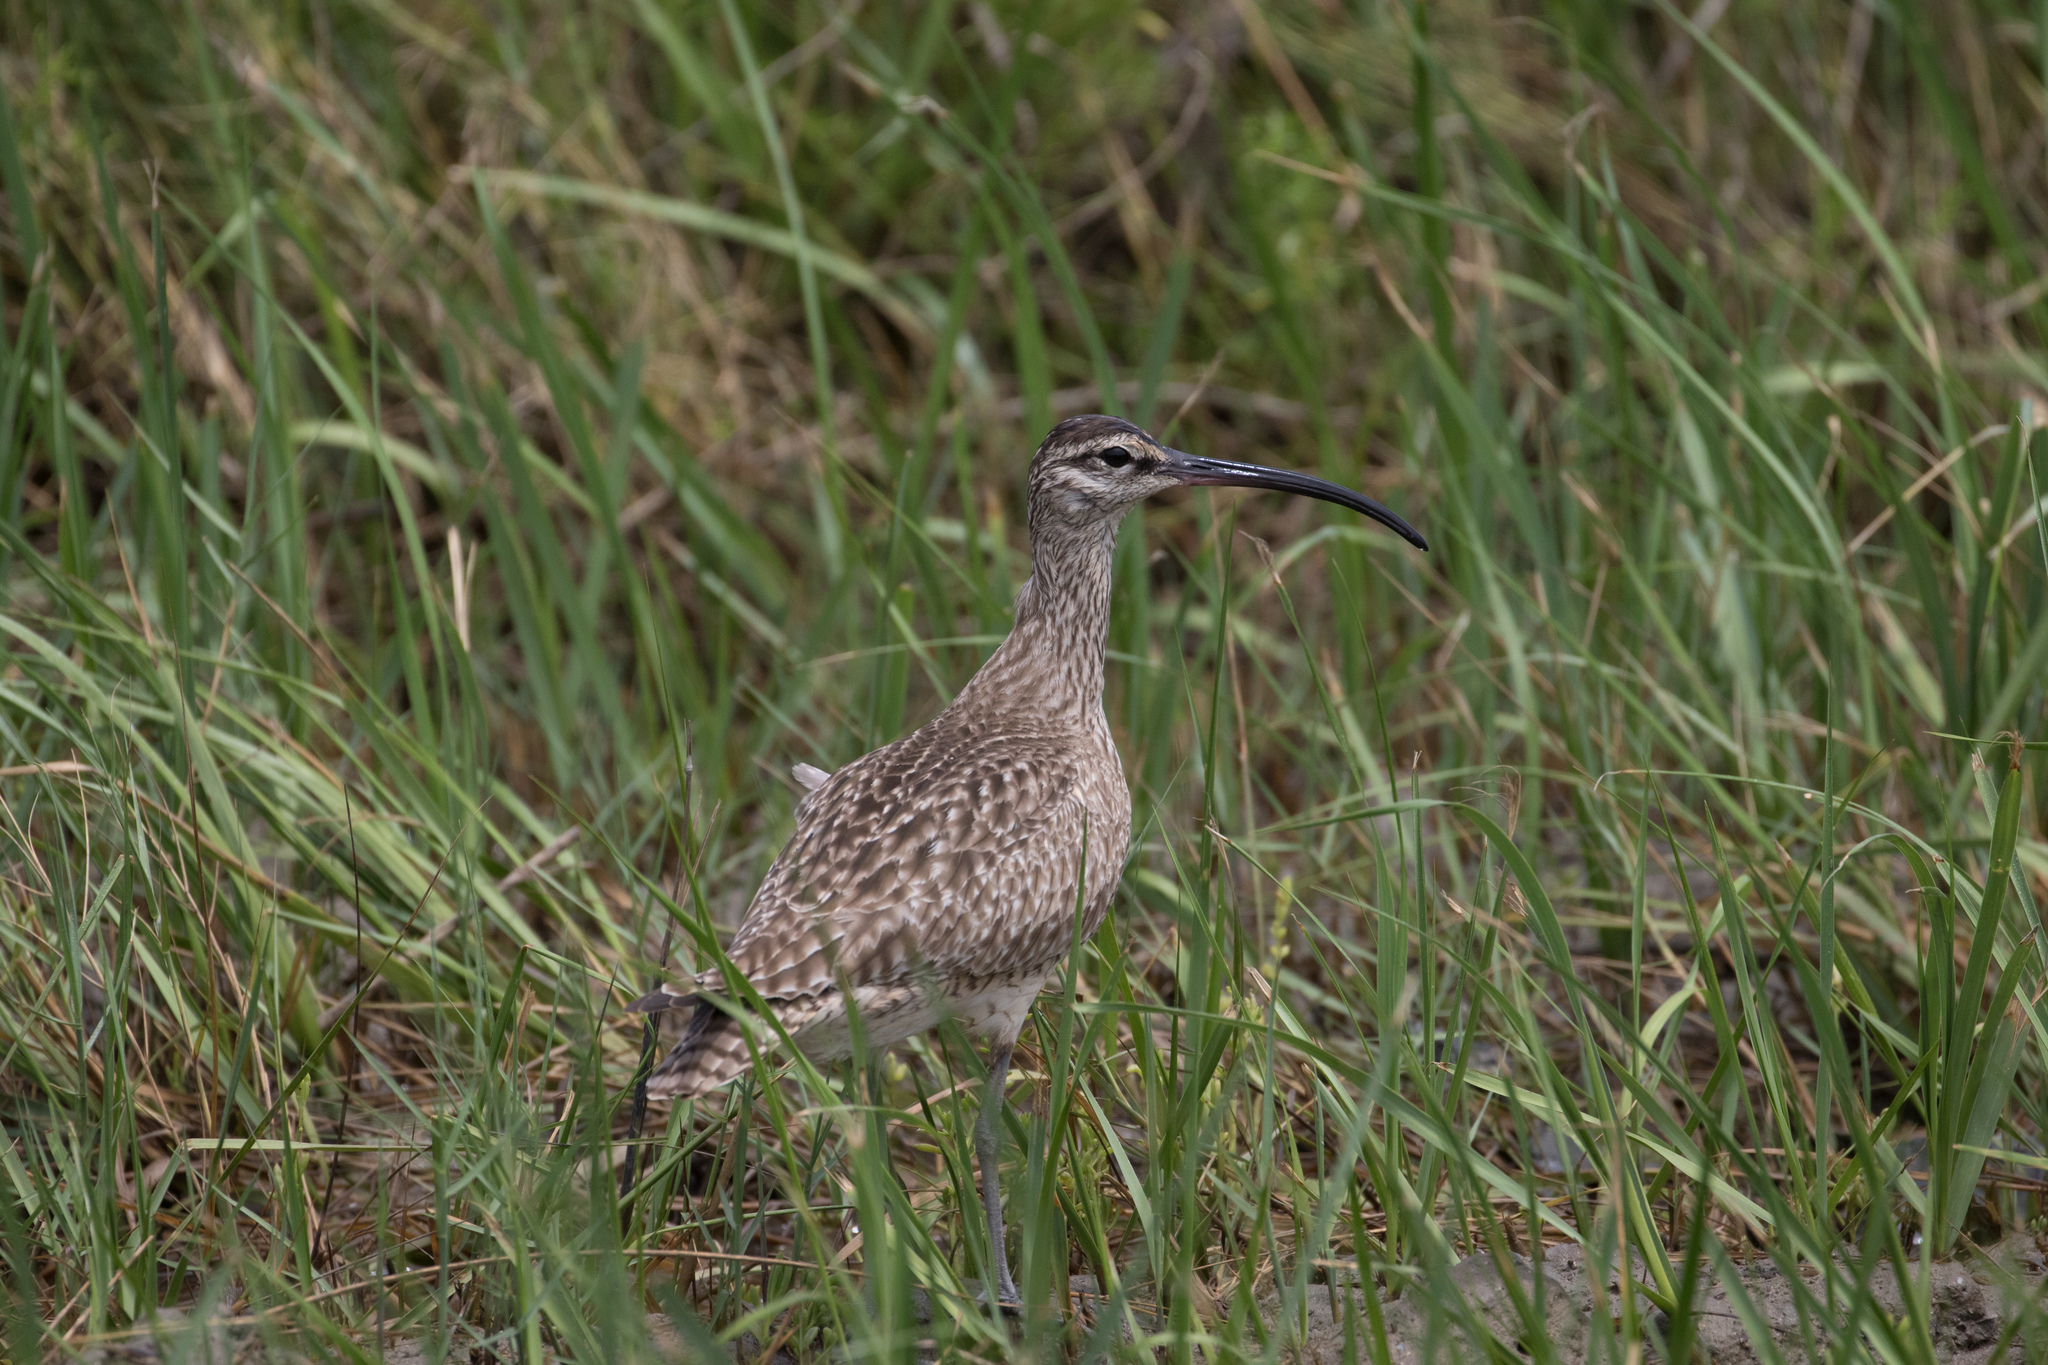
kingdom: Animalia
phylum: Chordata
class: Aves
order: Charadriiformes
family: Scolopacidae
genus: Numenius
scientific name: Numenius phaeopus
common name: Whimbrel
